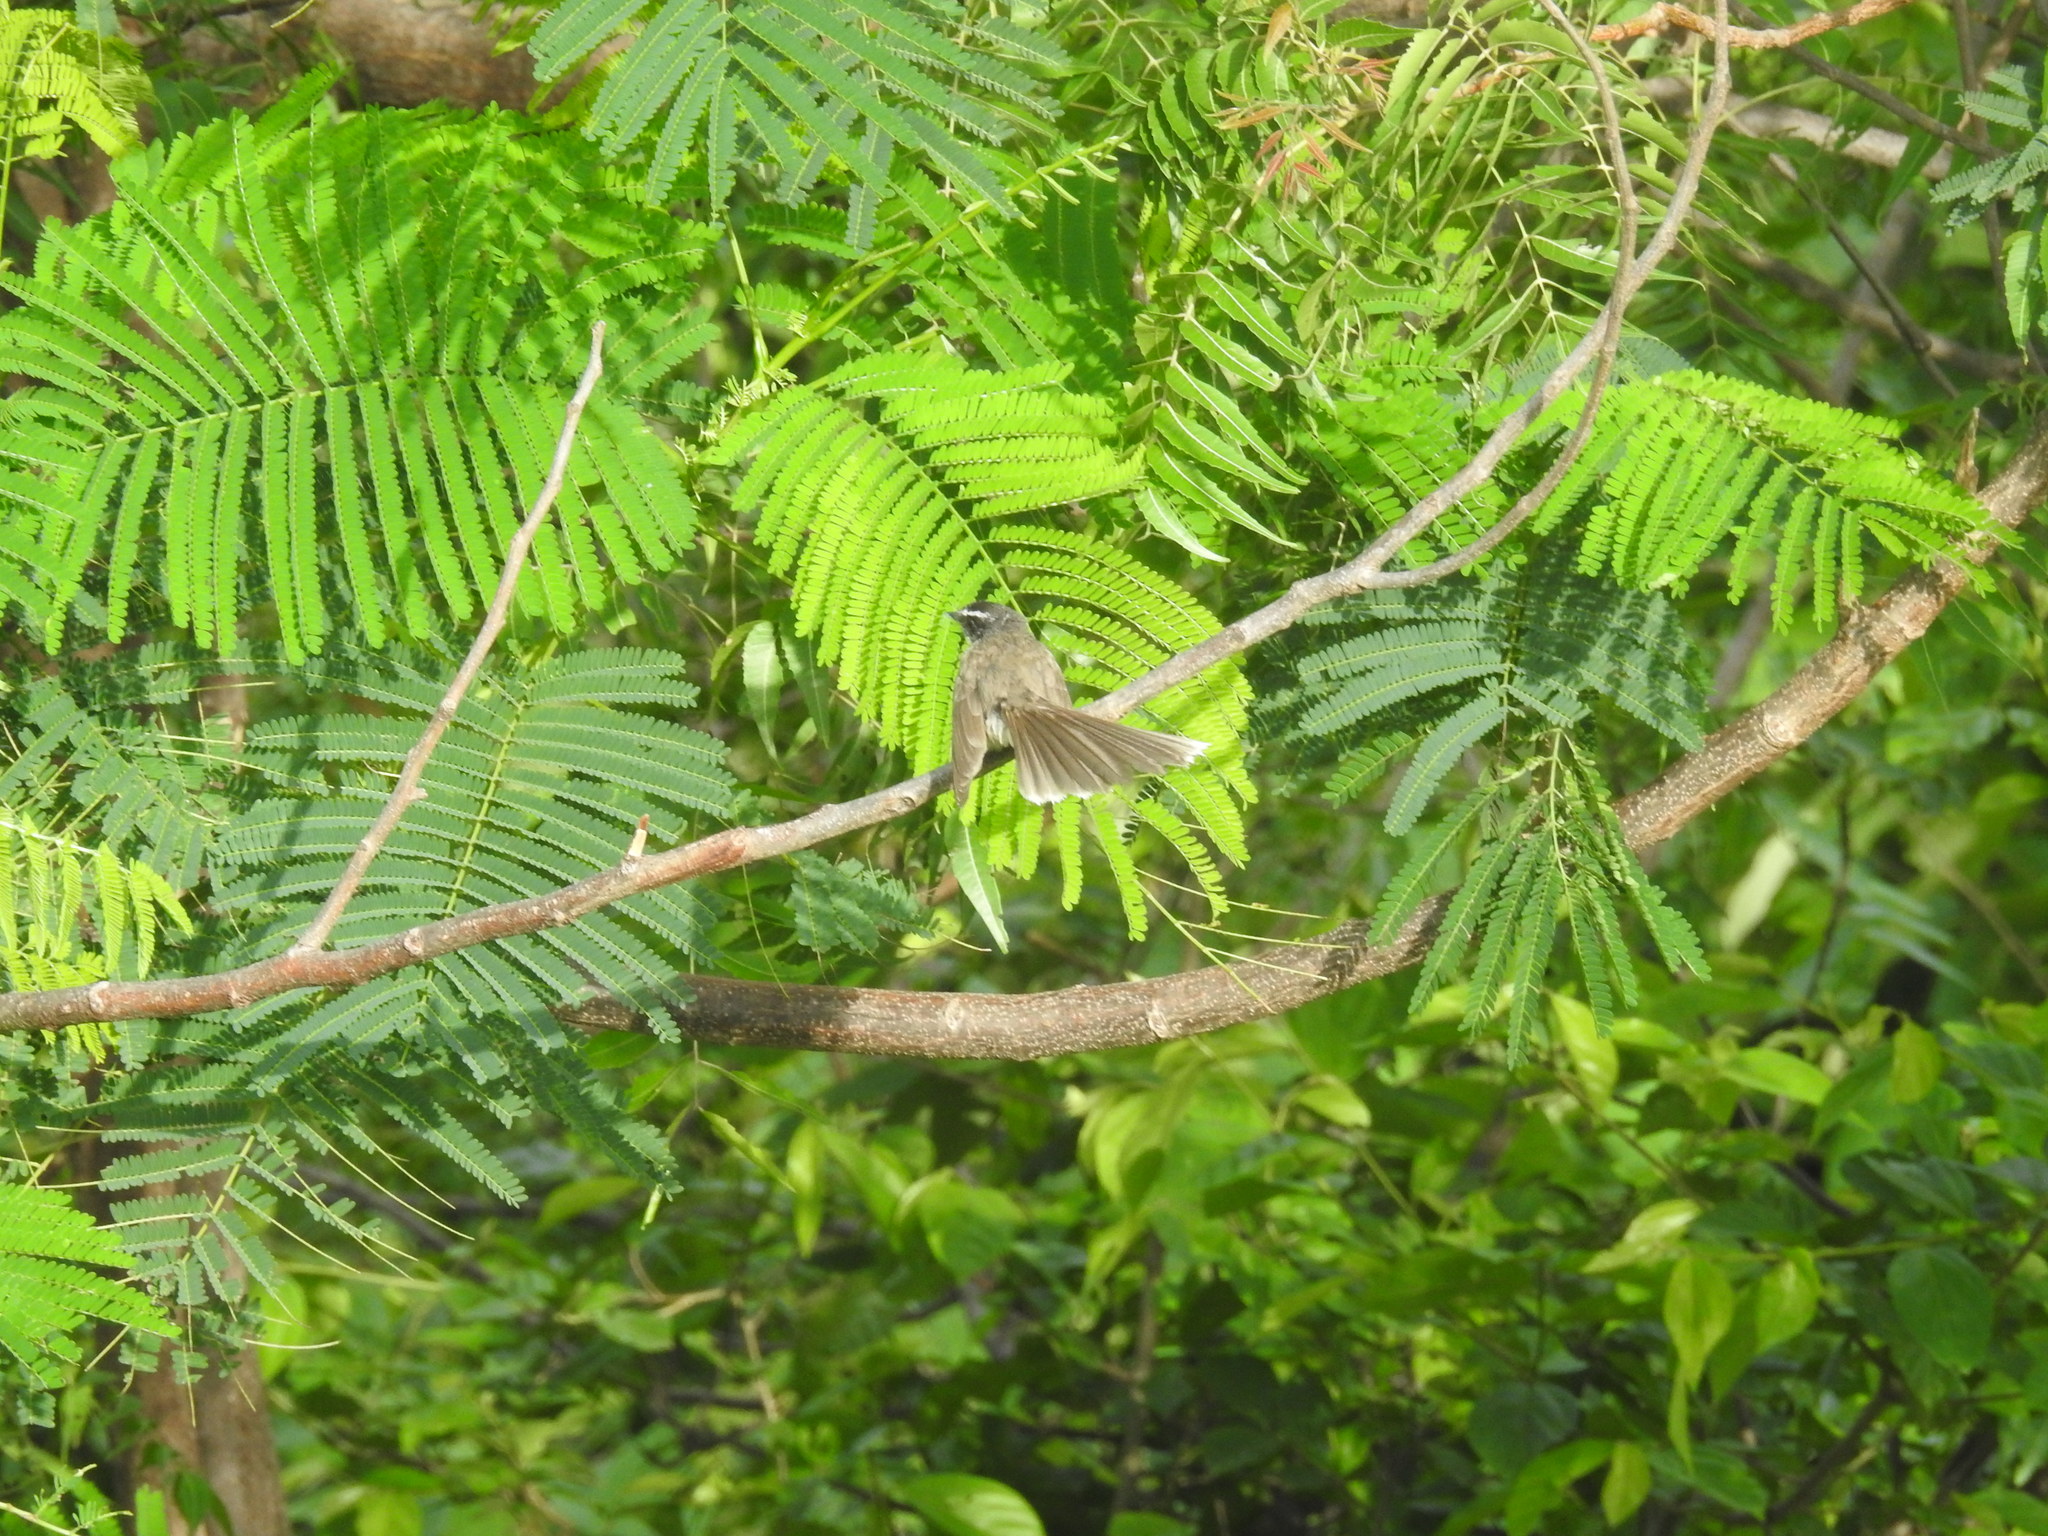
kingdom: Animalia
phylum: Chordata
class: Aves
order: Passeriformes
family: Rhipiduridae
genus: Rhipidura
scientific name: Rhipidura albogularis
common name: White-spotted fantail
